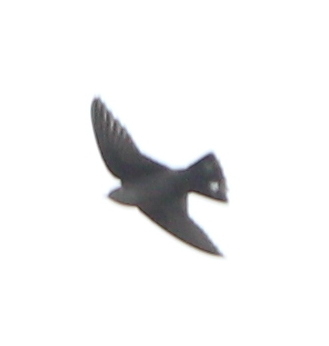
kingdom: Animalia
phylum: Chordata
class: Aves
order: Passeriformes
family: Hirundinidae
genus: Ptyonoprogne
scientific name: Ptyonoprogne rupestris
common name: Eurasian crag martin
